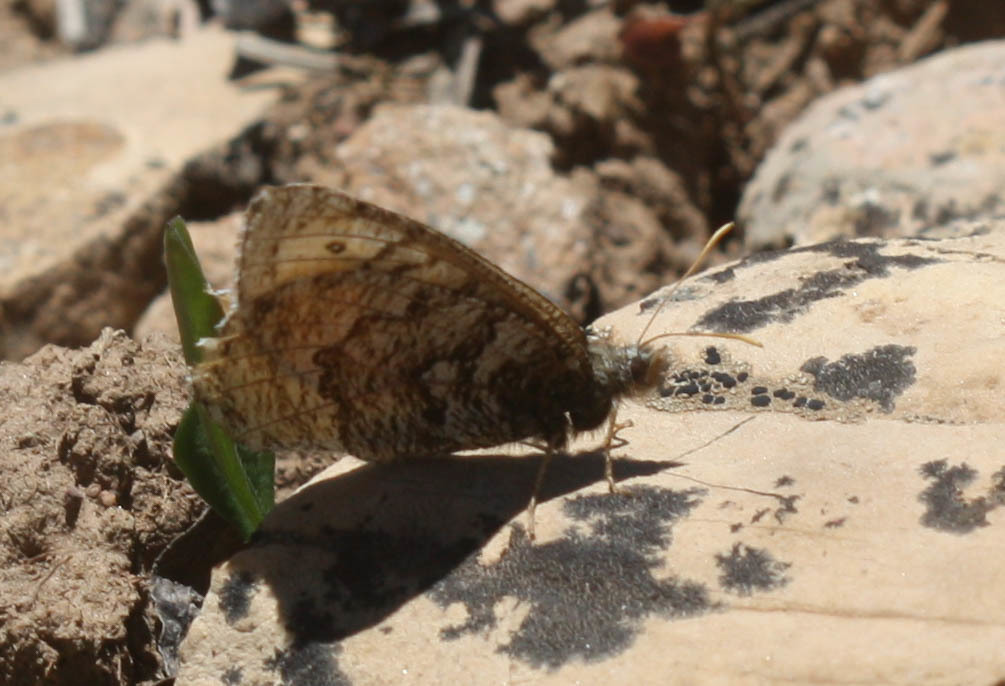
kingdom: Animalia
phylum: Arthropoda
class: Insecta
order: Lepidoptera
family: Nymphalidae
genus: Oeneis
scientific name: Oeneis chryxus
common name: Chryxus arctic
